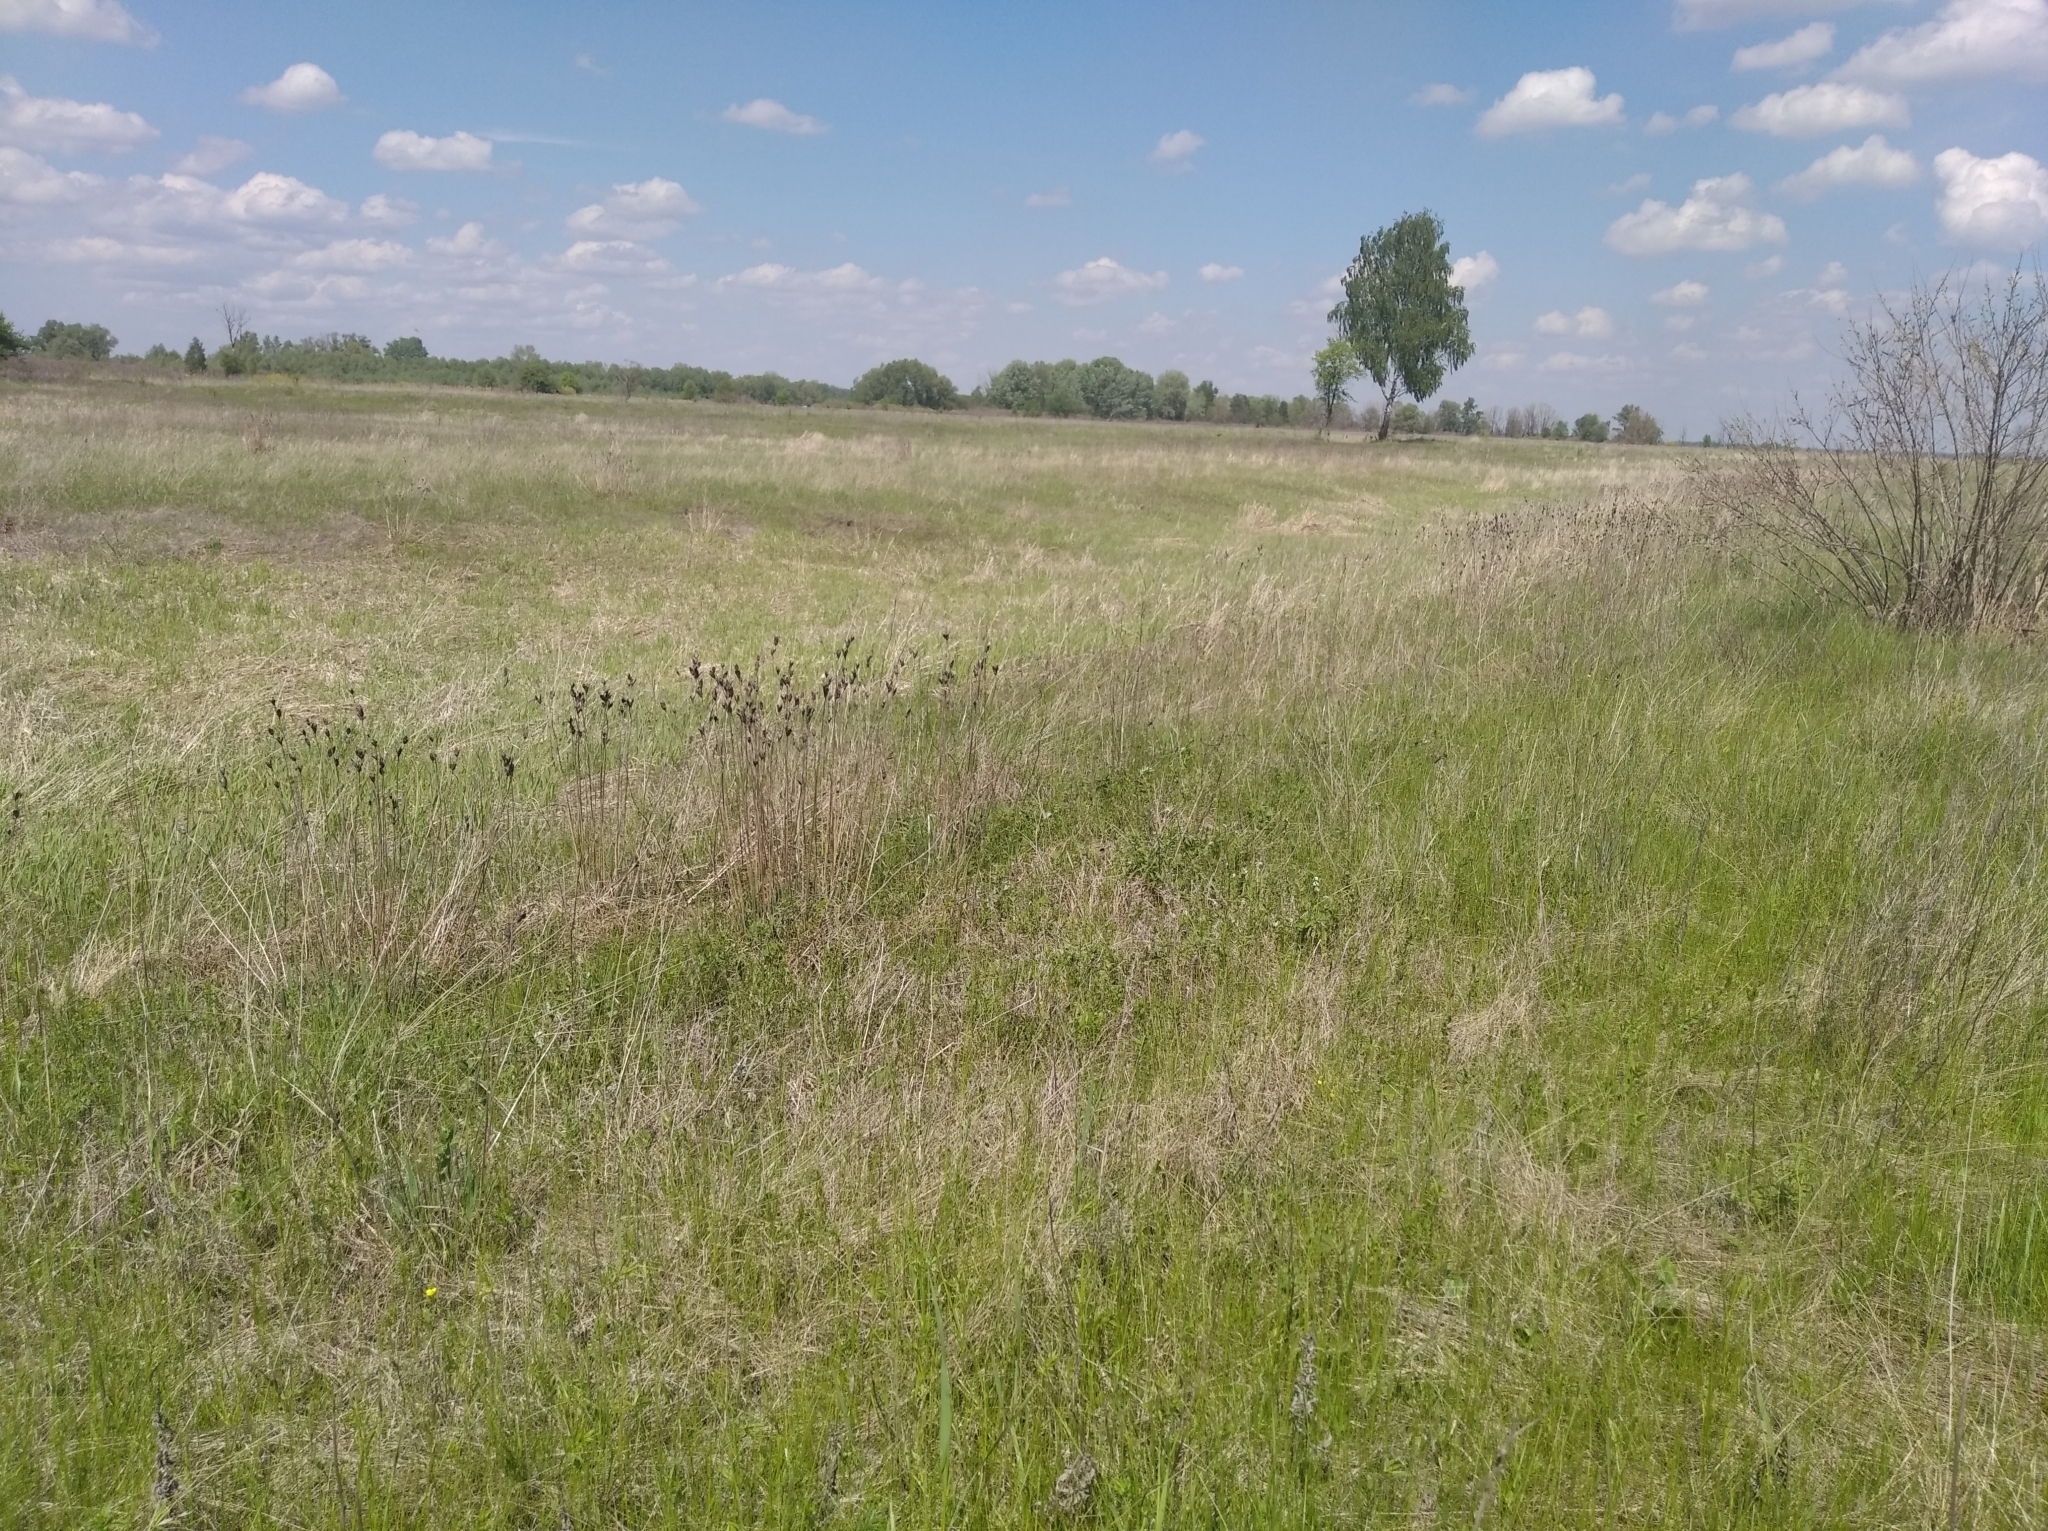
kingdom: Plantae
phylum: Tracheophyta
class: Liliopsida
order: Asparagales
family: Iridaceae
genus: Iris
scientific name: Iris sibirica
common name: Siberian iris
